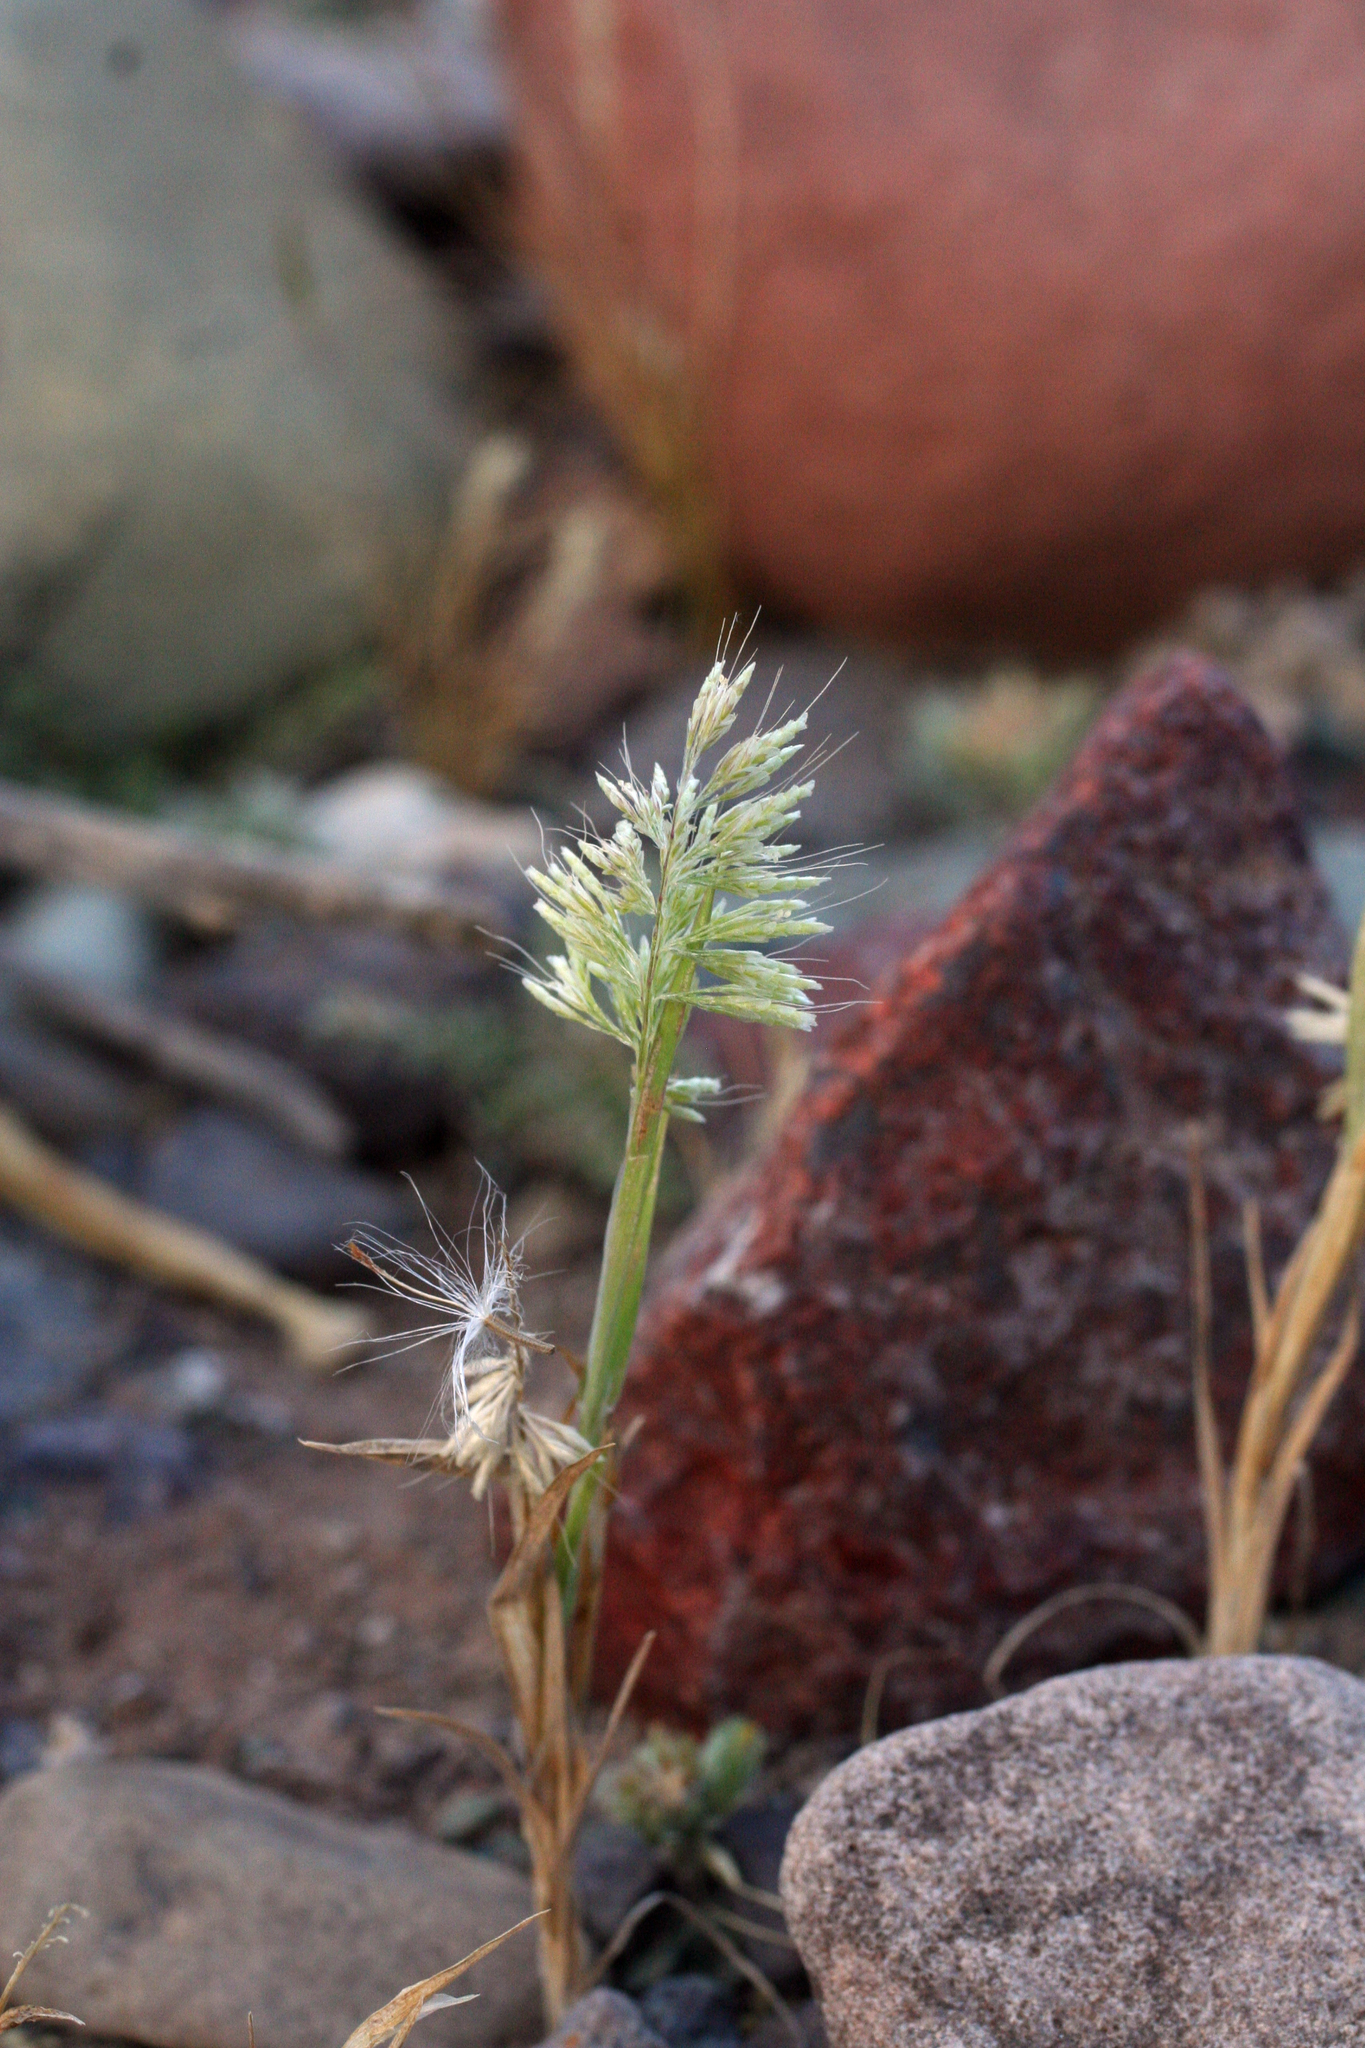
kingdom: Plantae
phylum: Tracheophyta
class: Liliopsida
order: Poales
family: Poaceae
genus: Lamarckia
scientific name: Lamarckia aurea
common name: Golden dog's-tail
